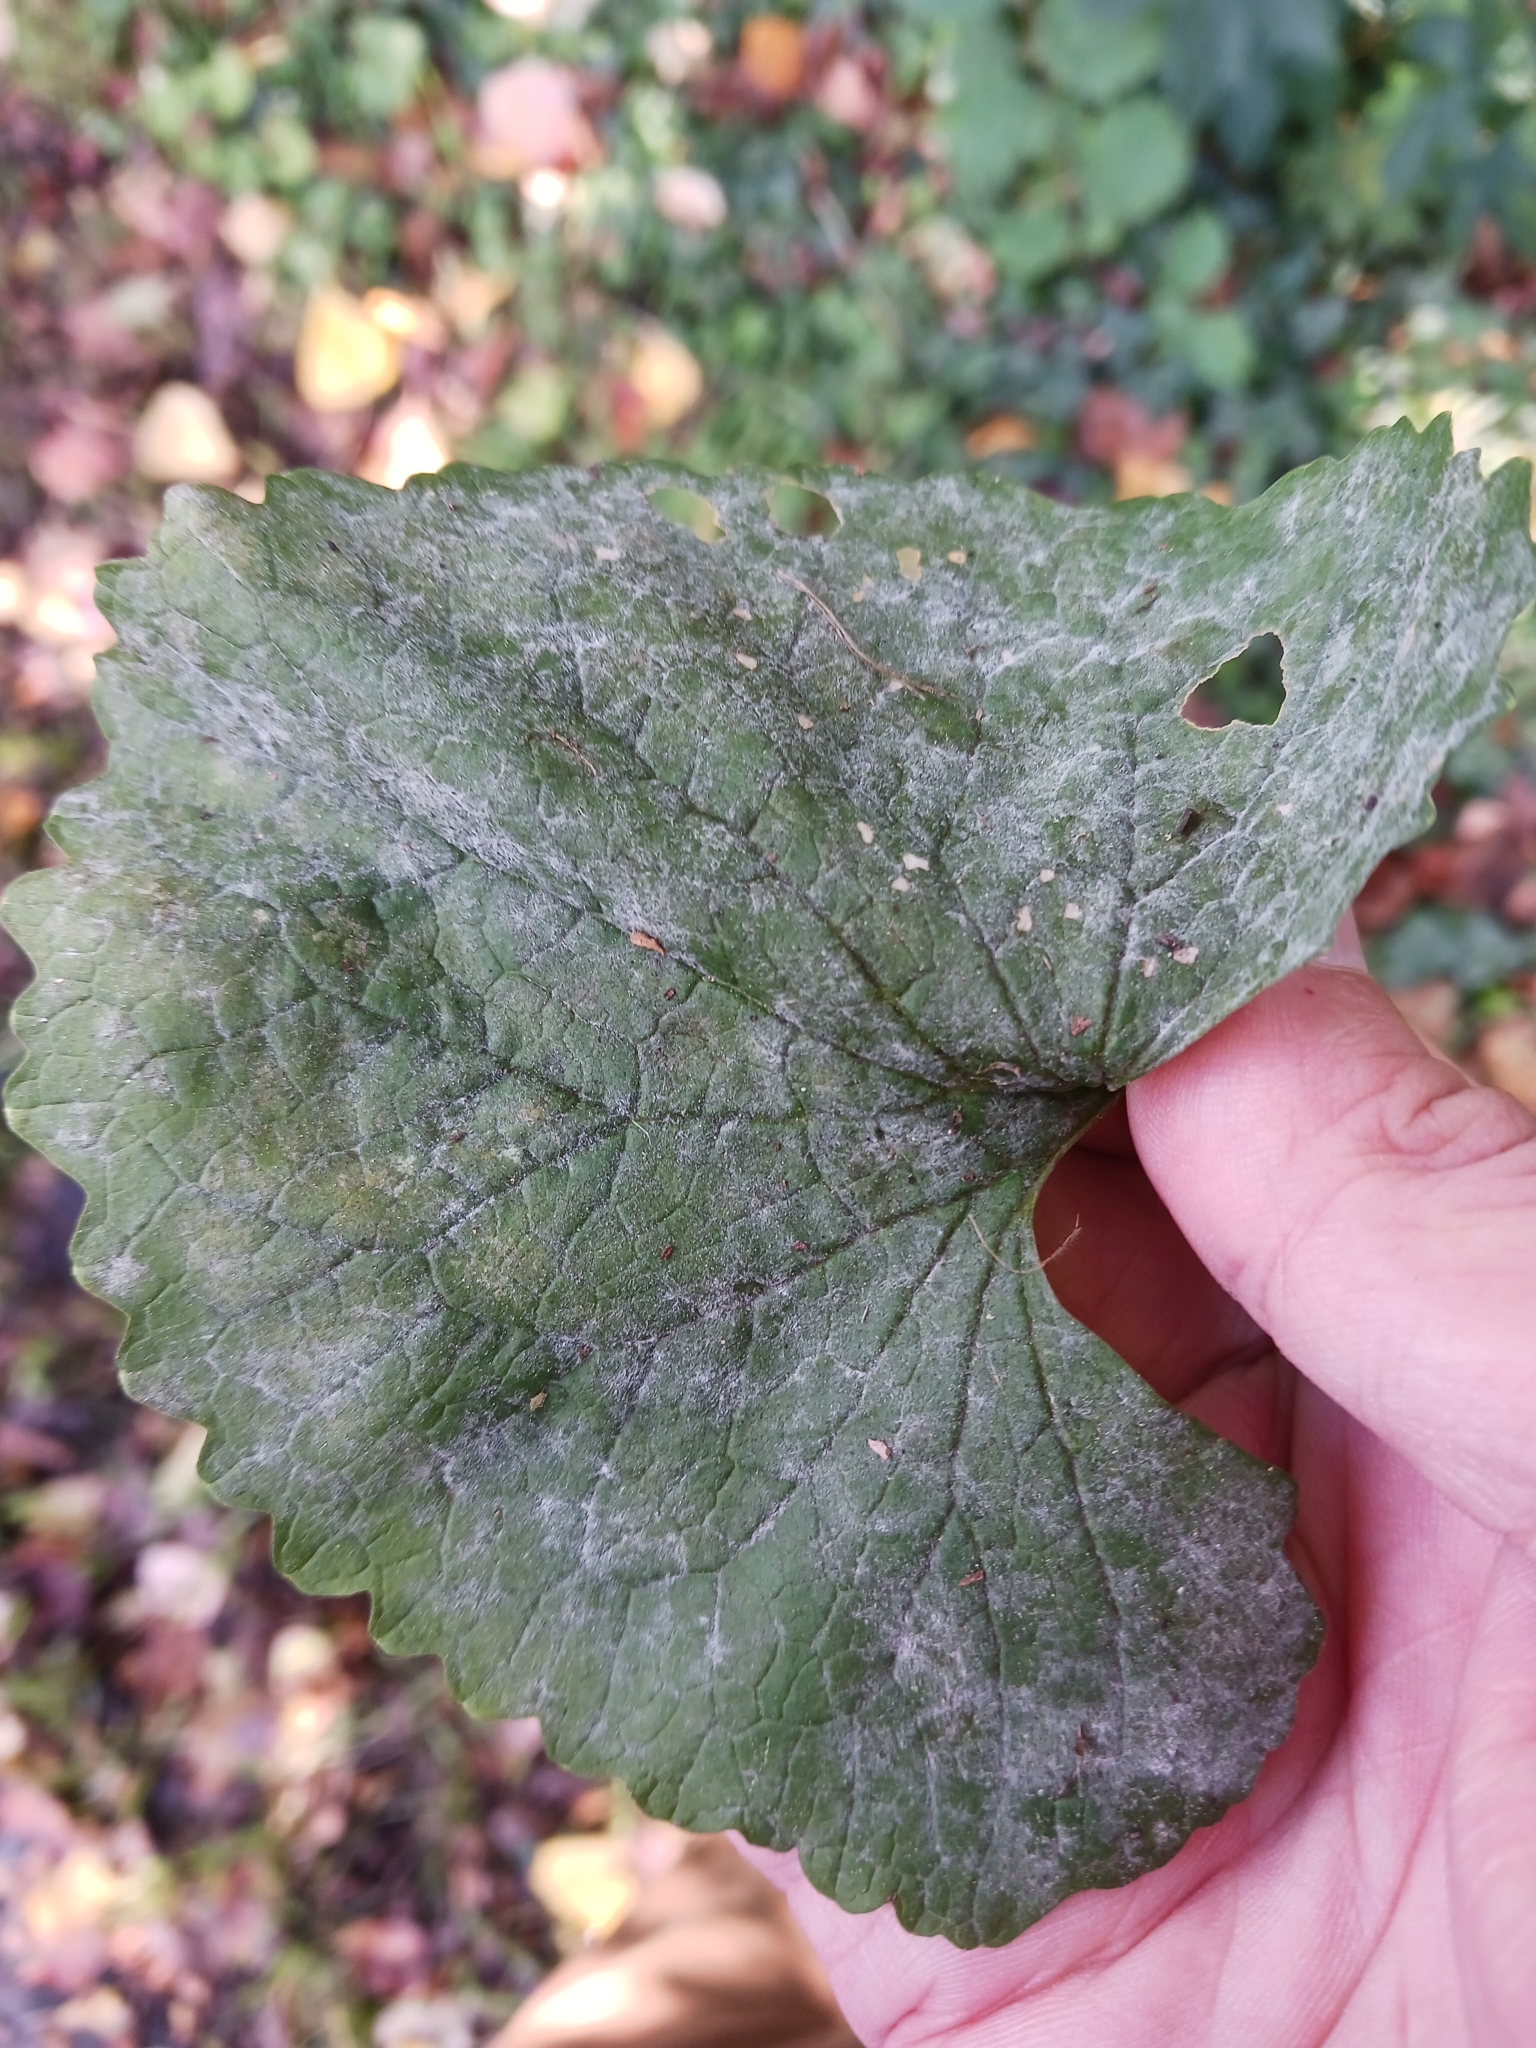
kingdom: Fungi
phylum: Ascomycota
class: Leotiomycetes
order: Helotiales
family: Erysiphaceae
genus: Erysiphe
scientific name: Erysiphe cruciferarum
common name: Brassica powdery mildew
